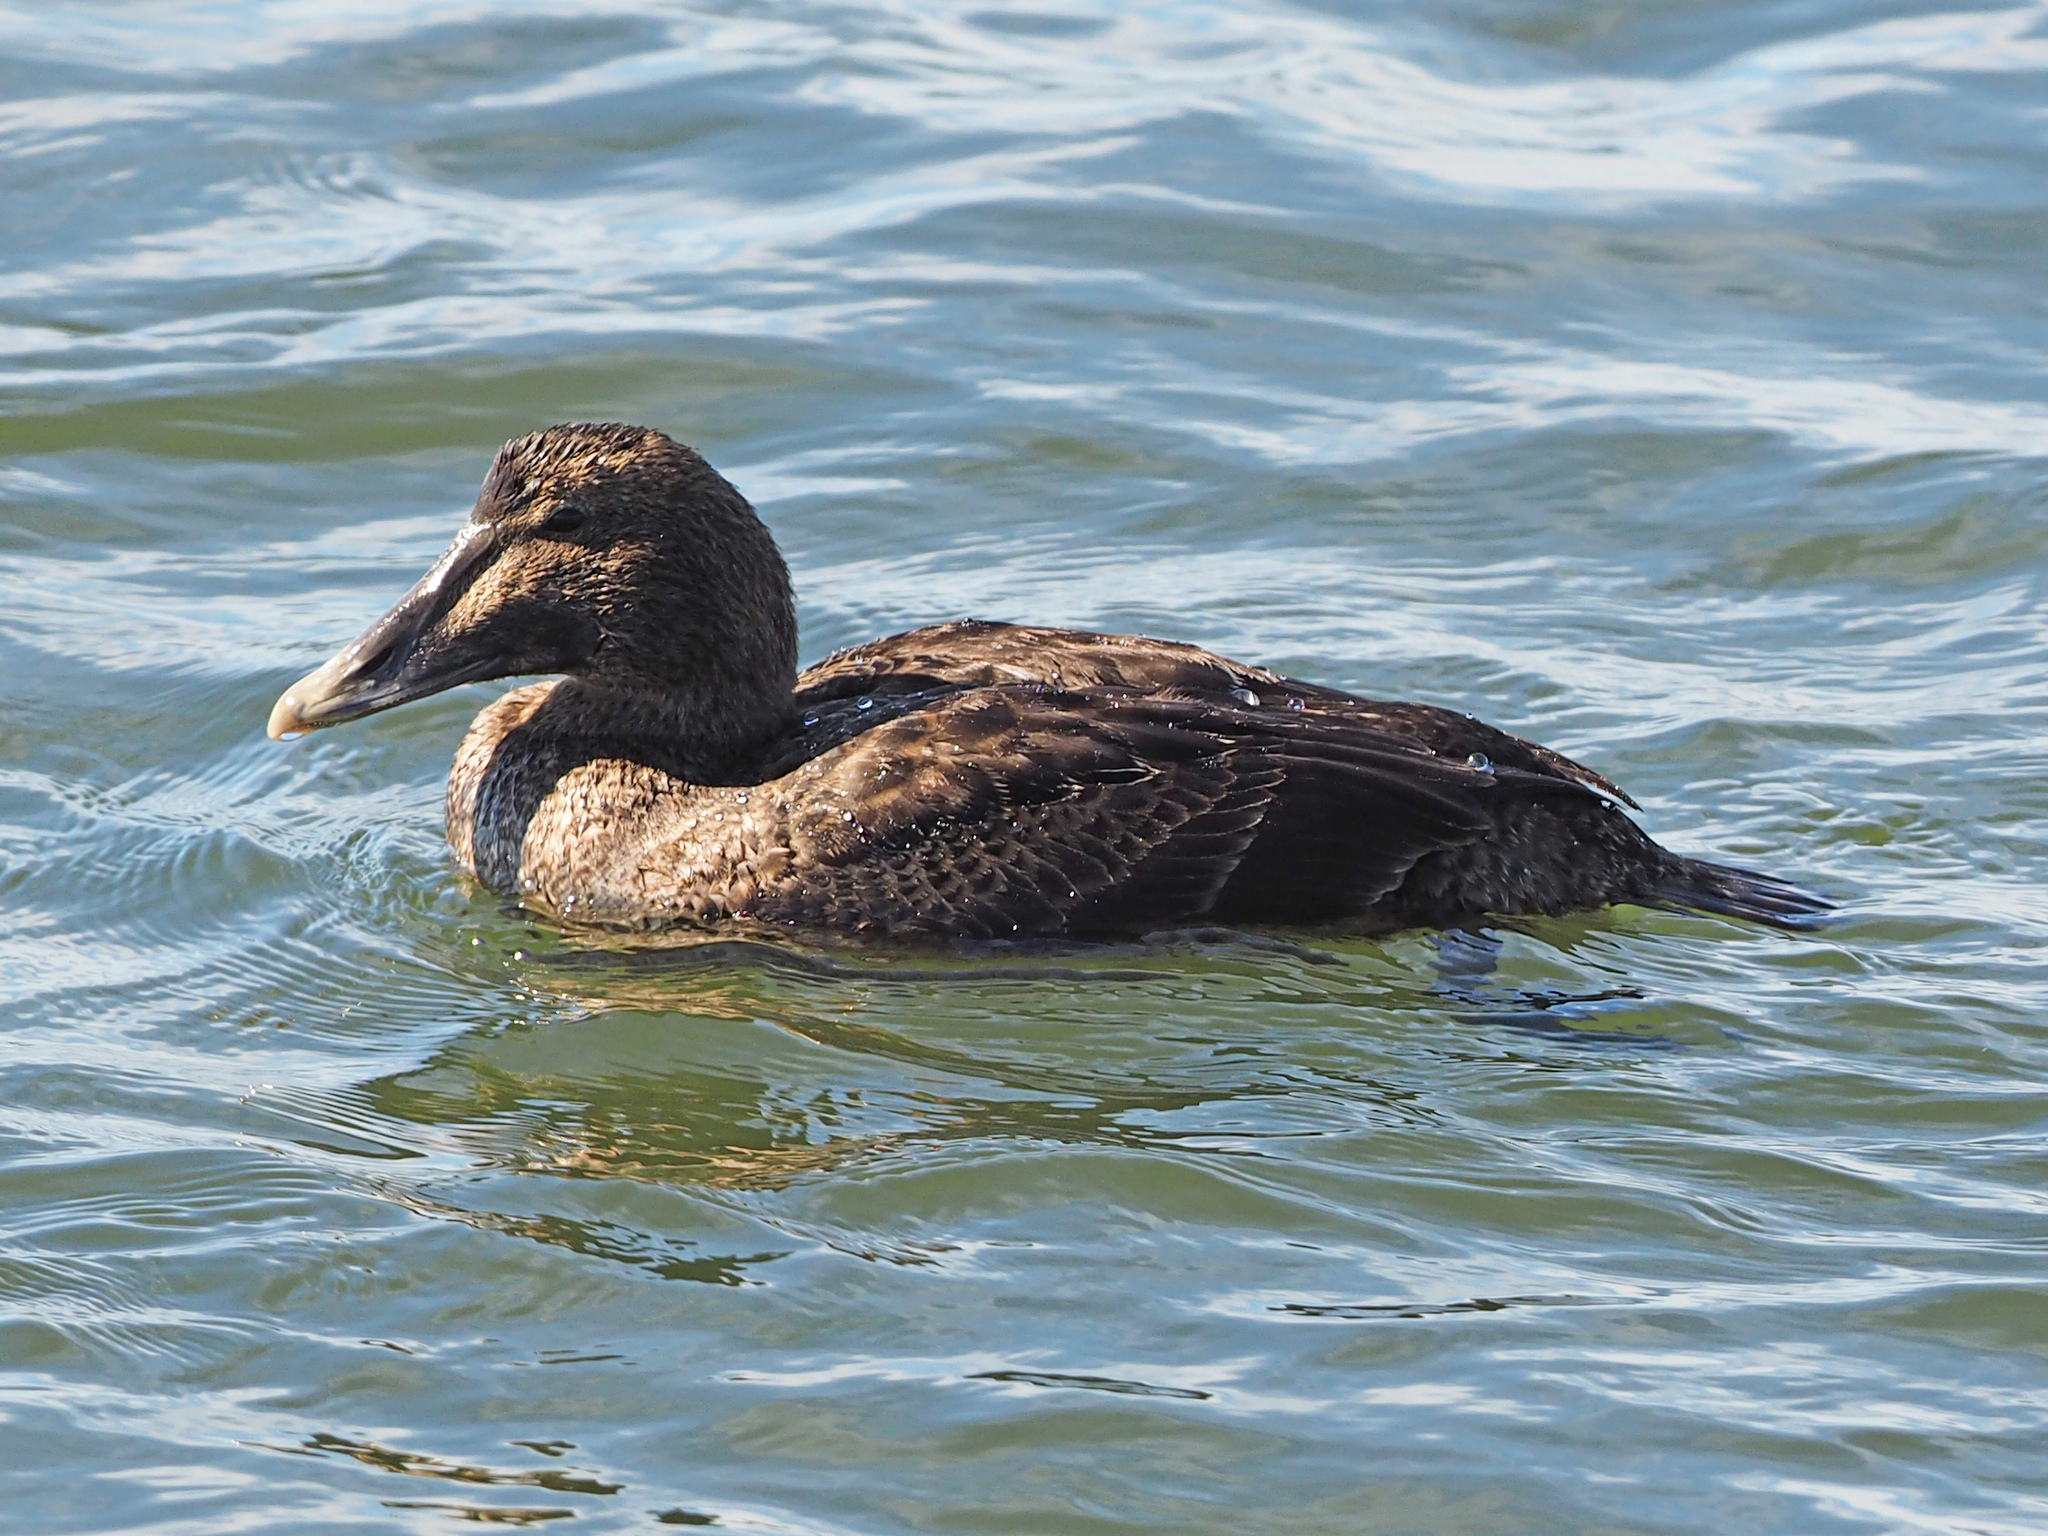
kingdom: Animalia
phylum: Chordata
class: Aves
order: Anseriformes
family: Anatidae
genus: Somateria
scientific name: Somateria mollissima
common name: Common eider
